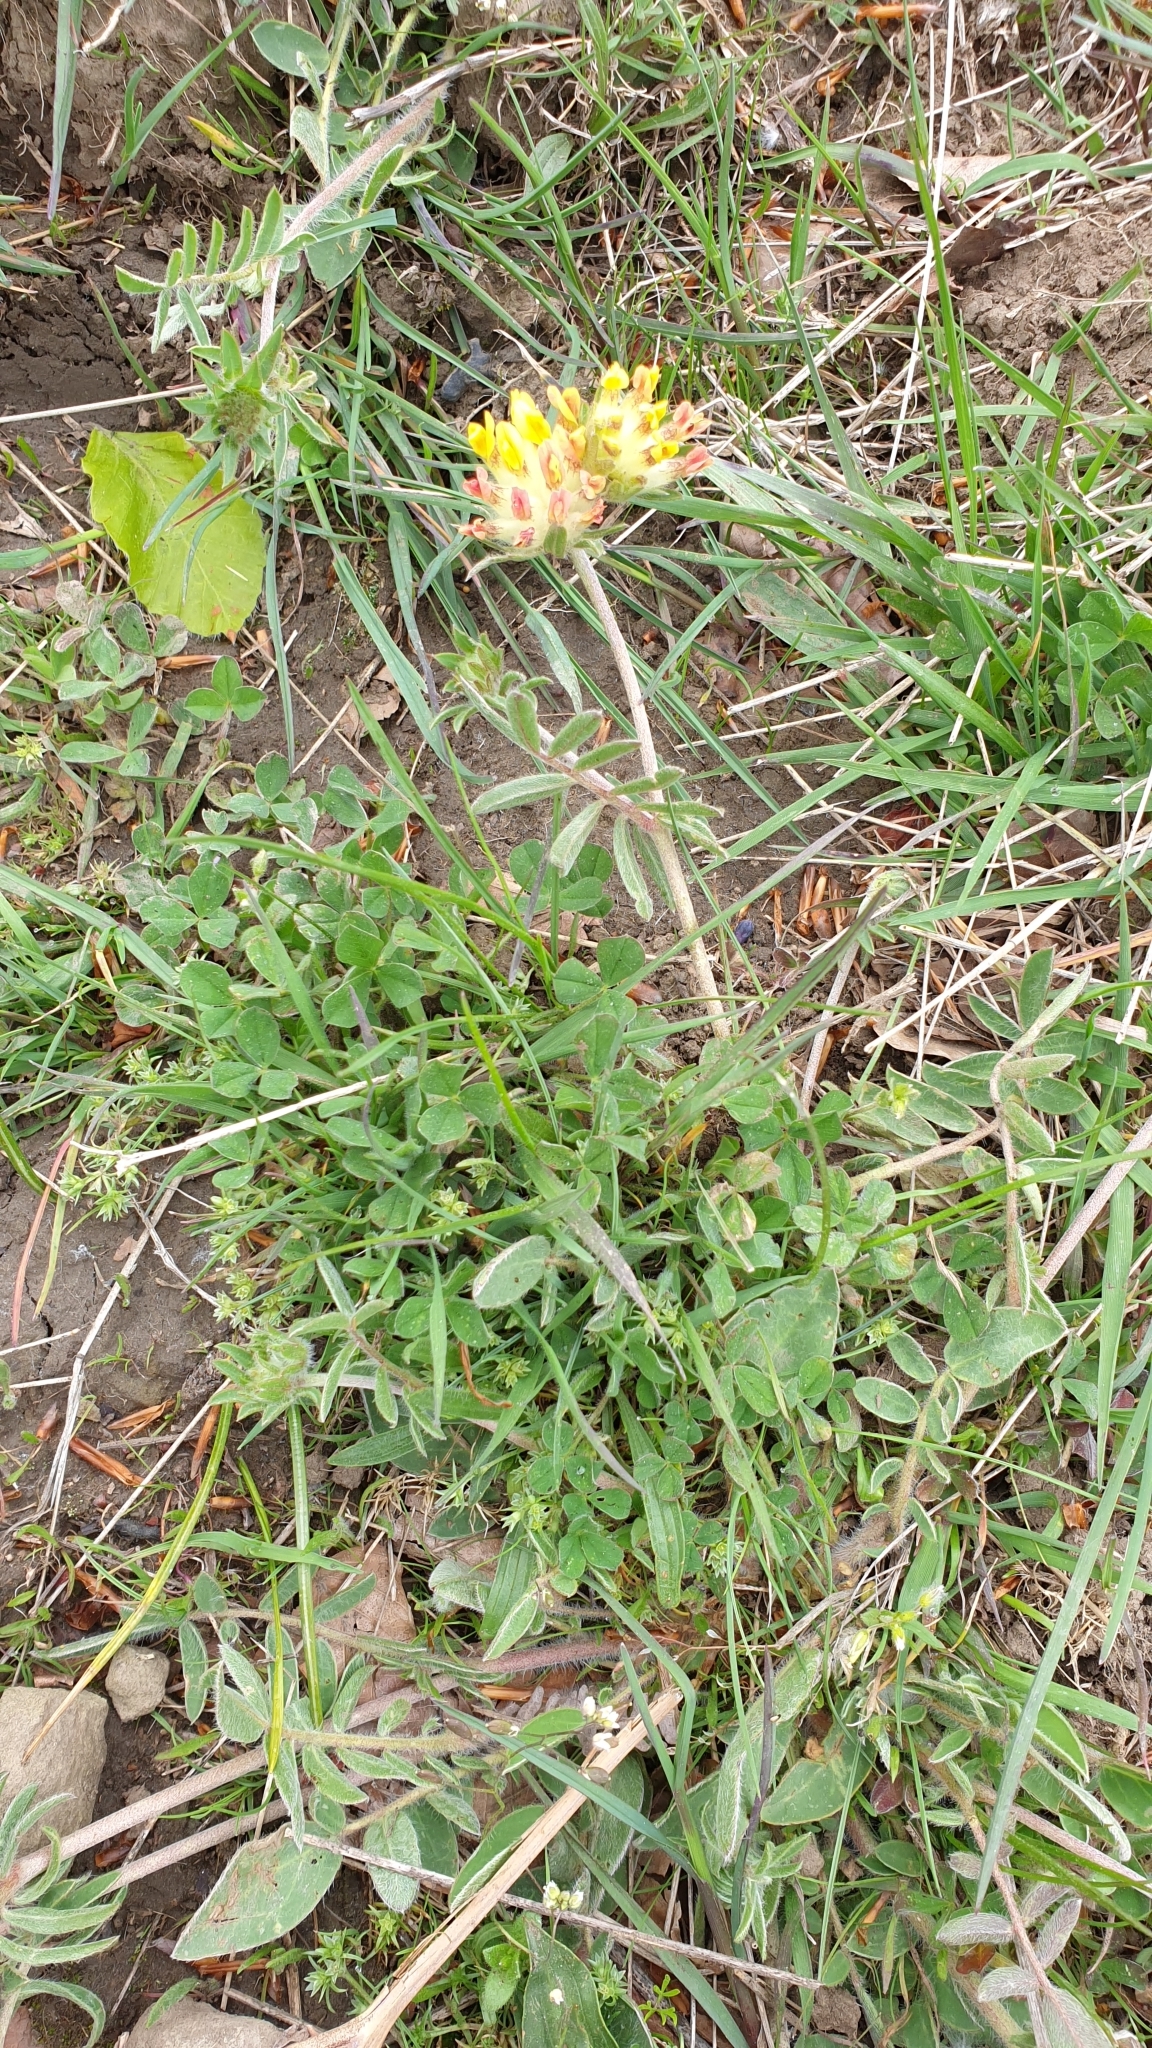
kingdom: Plantae
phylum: Tracheophyta
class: Magnoliopsida
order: Fabales
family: Fabaceae
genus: Anthyllis
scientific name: Anthyllis vulneraria
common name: Kidney vetch
